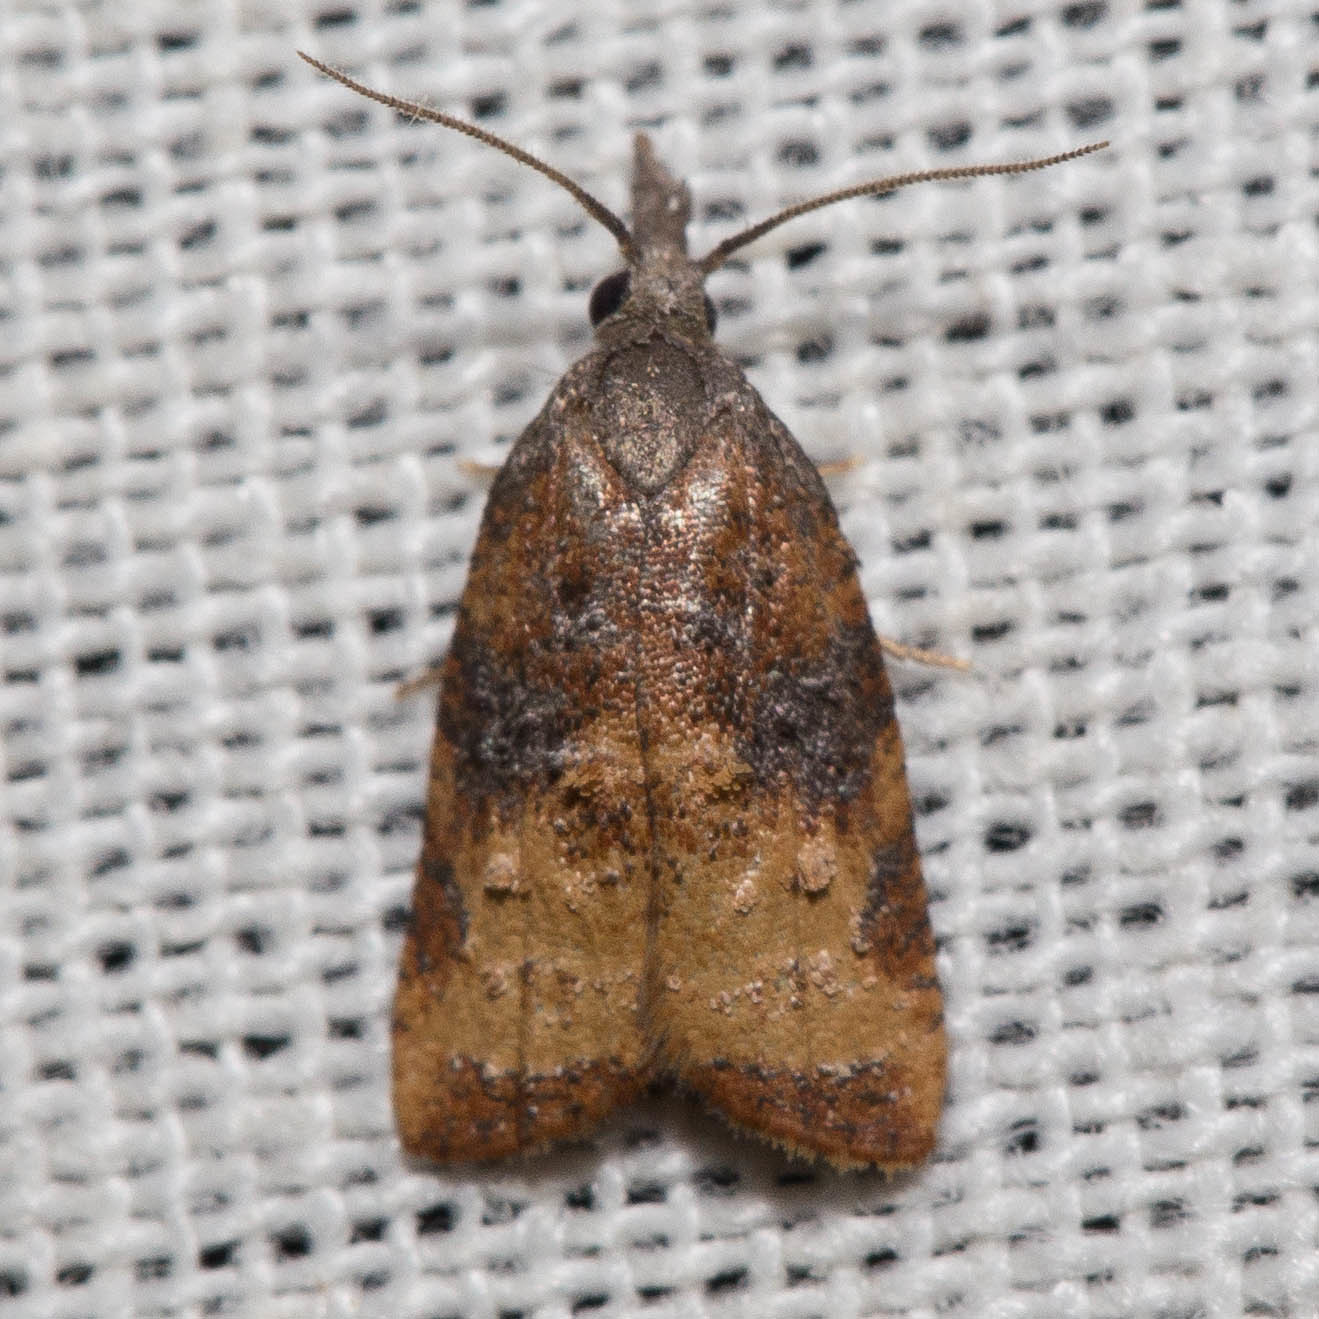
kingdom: Animalia
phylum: Arthropoda
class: Insecta
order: Lepidoptera
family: Tortricidae
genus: Platynota
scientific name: Platynota stultana
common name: Omnivorous leafroller
